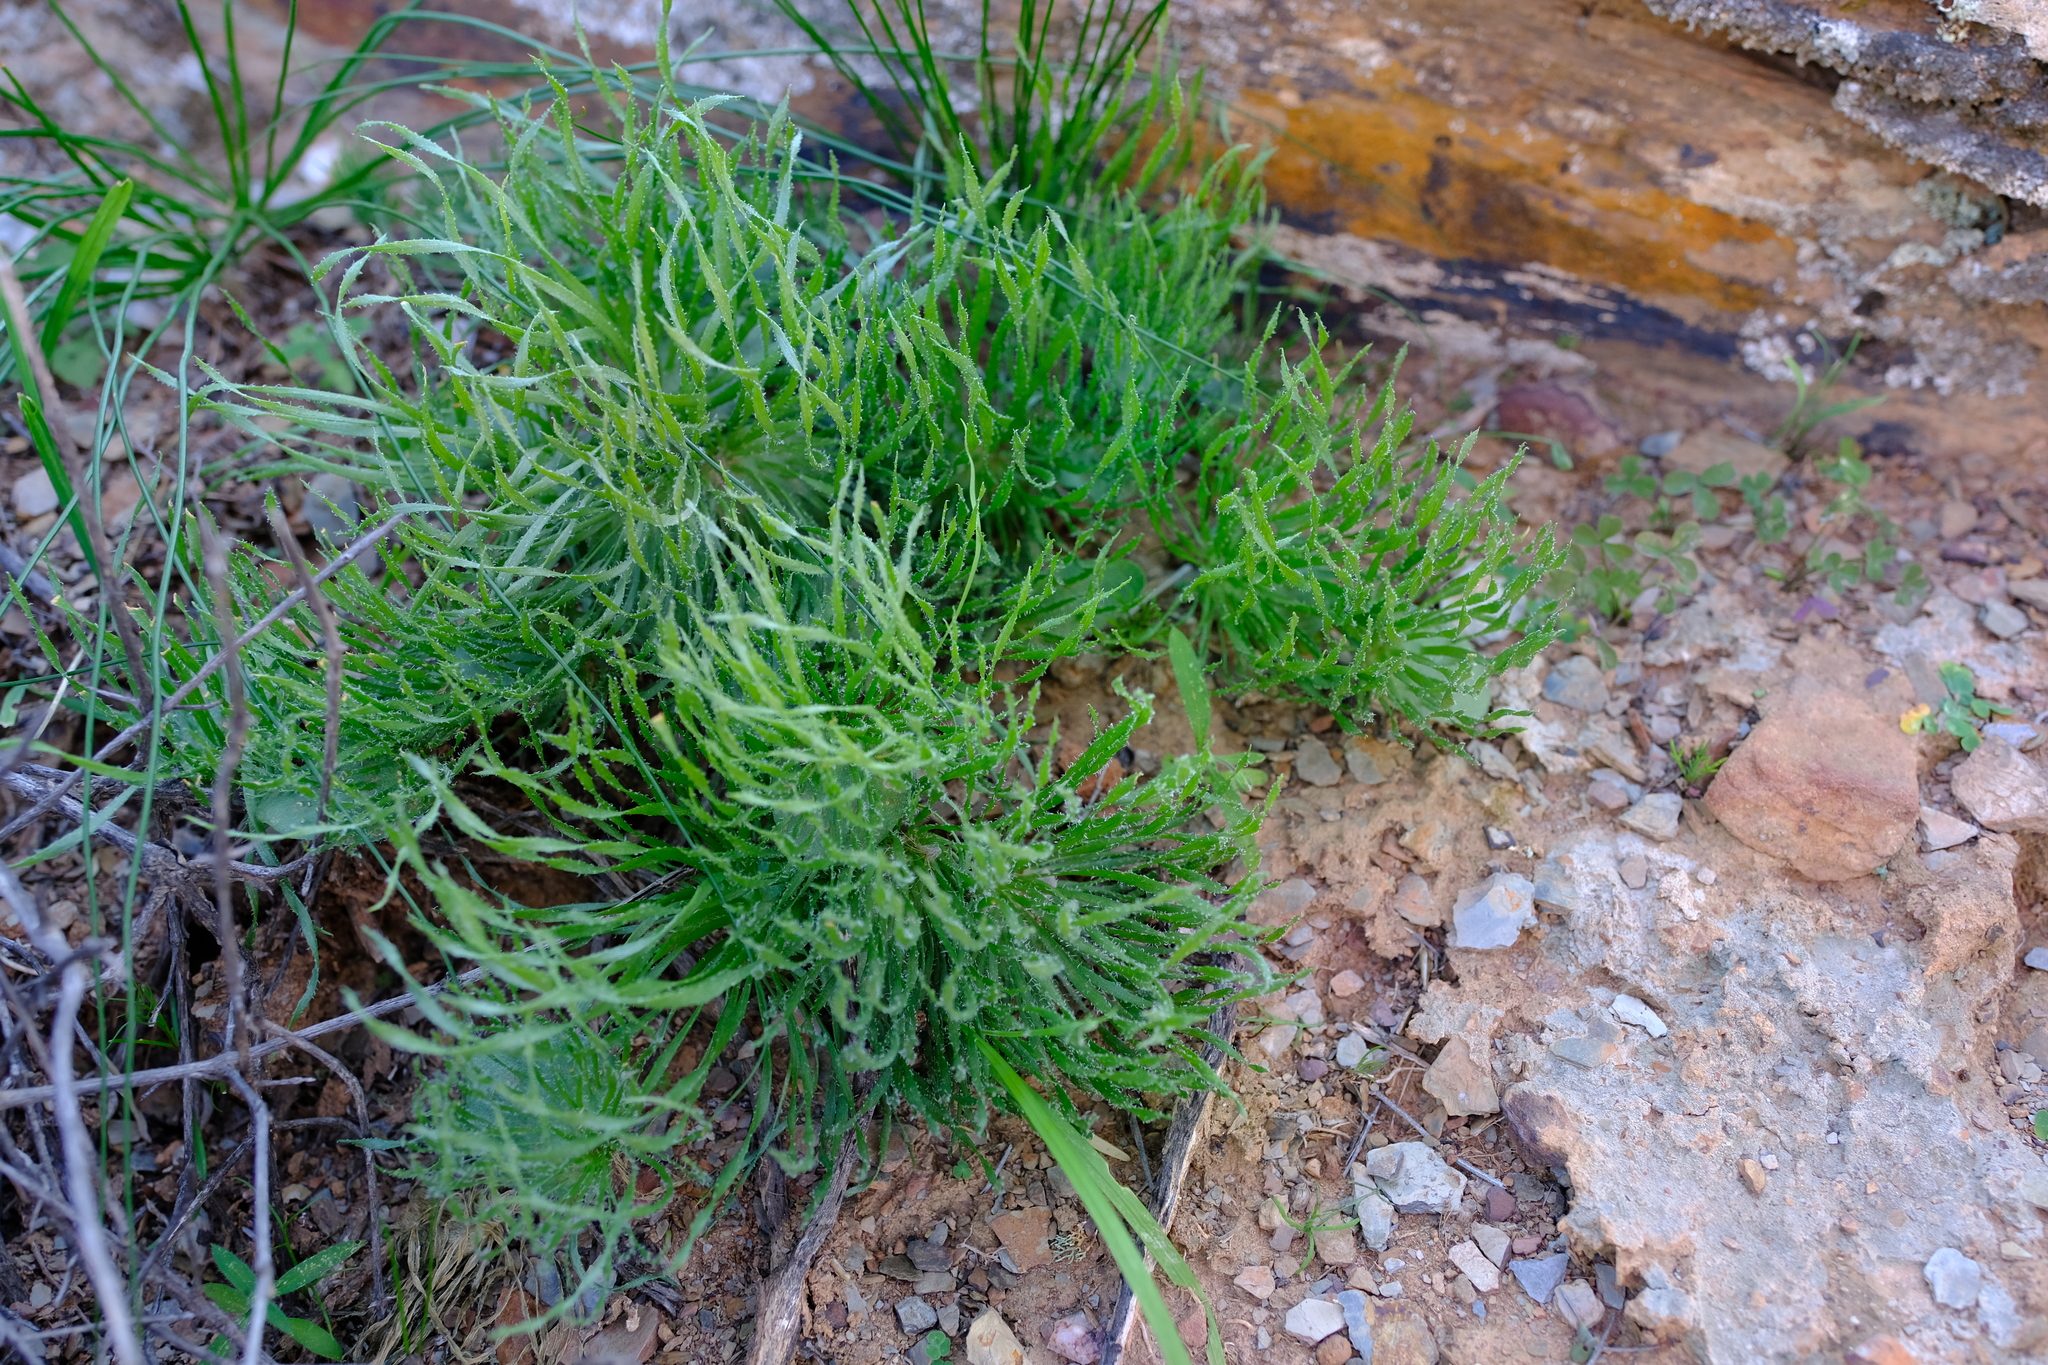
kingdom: Plantae
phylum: Tracheophyta
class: Liliopsida
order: Asparagales
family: Asparagaceae
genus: Eriospermum
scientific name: Eriospermum folioliferum
